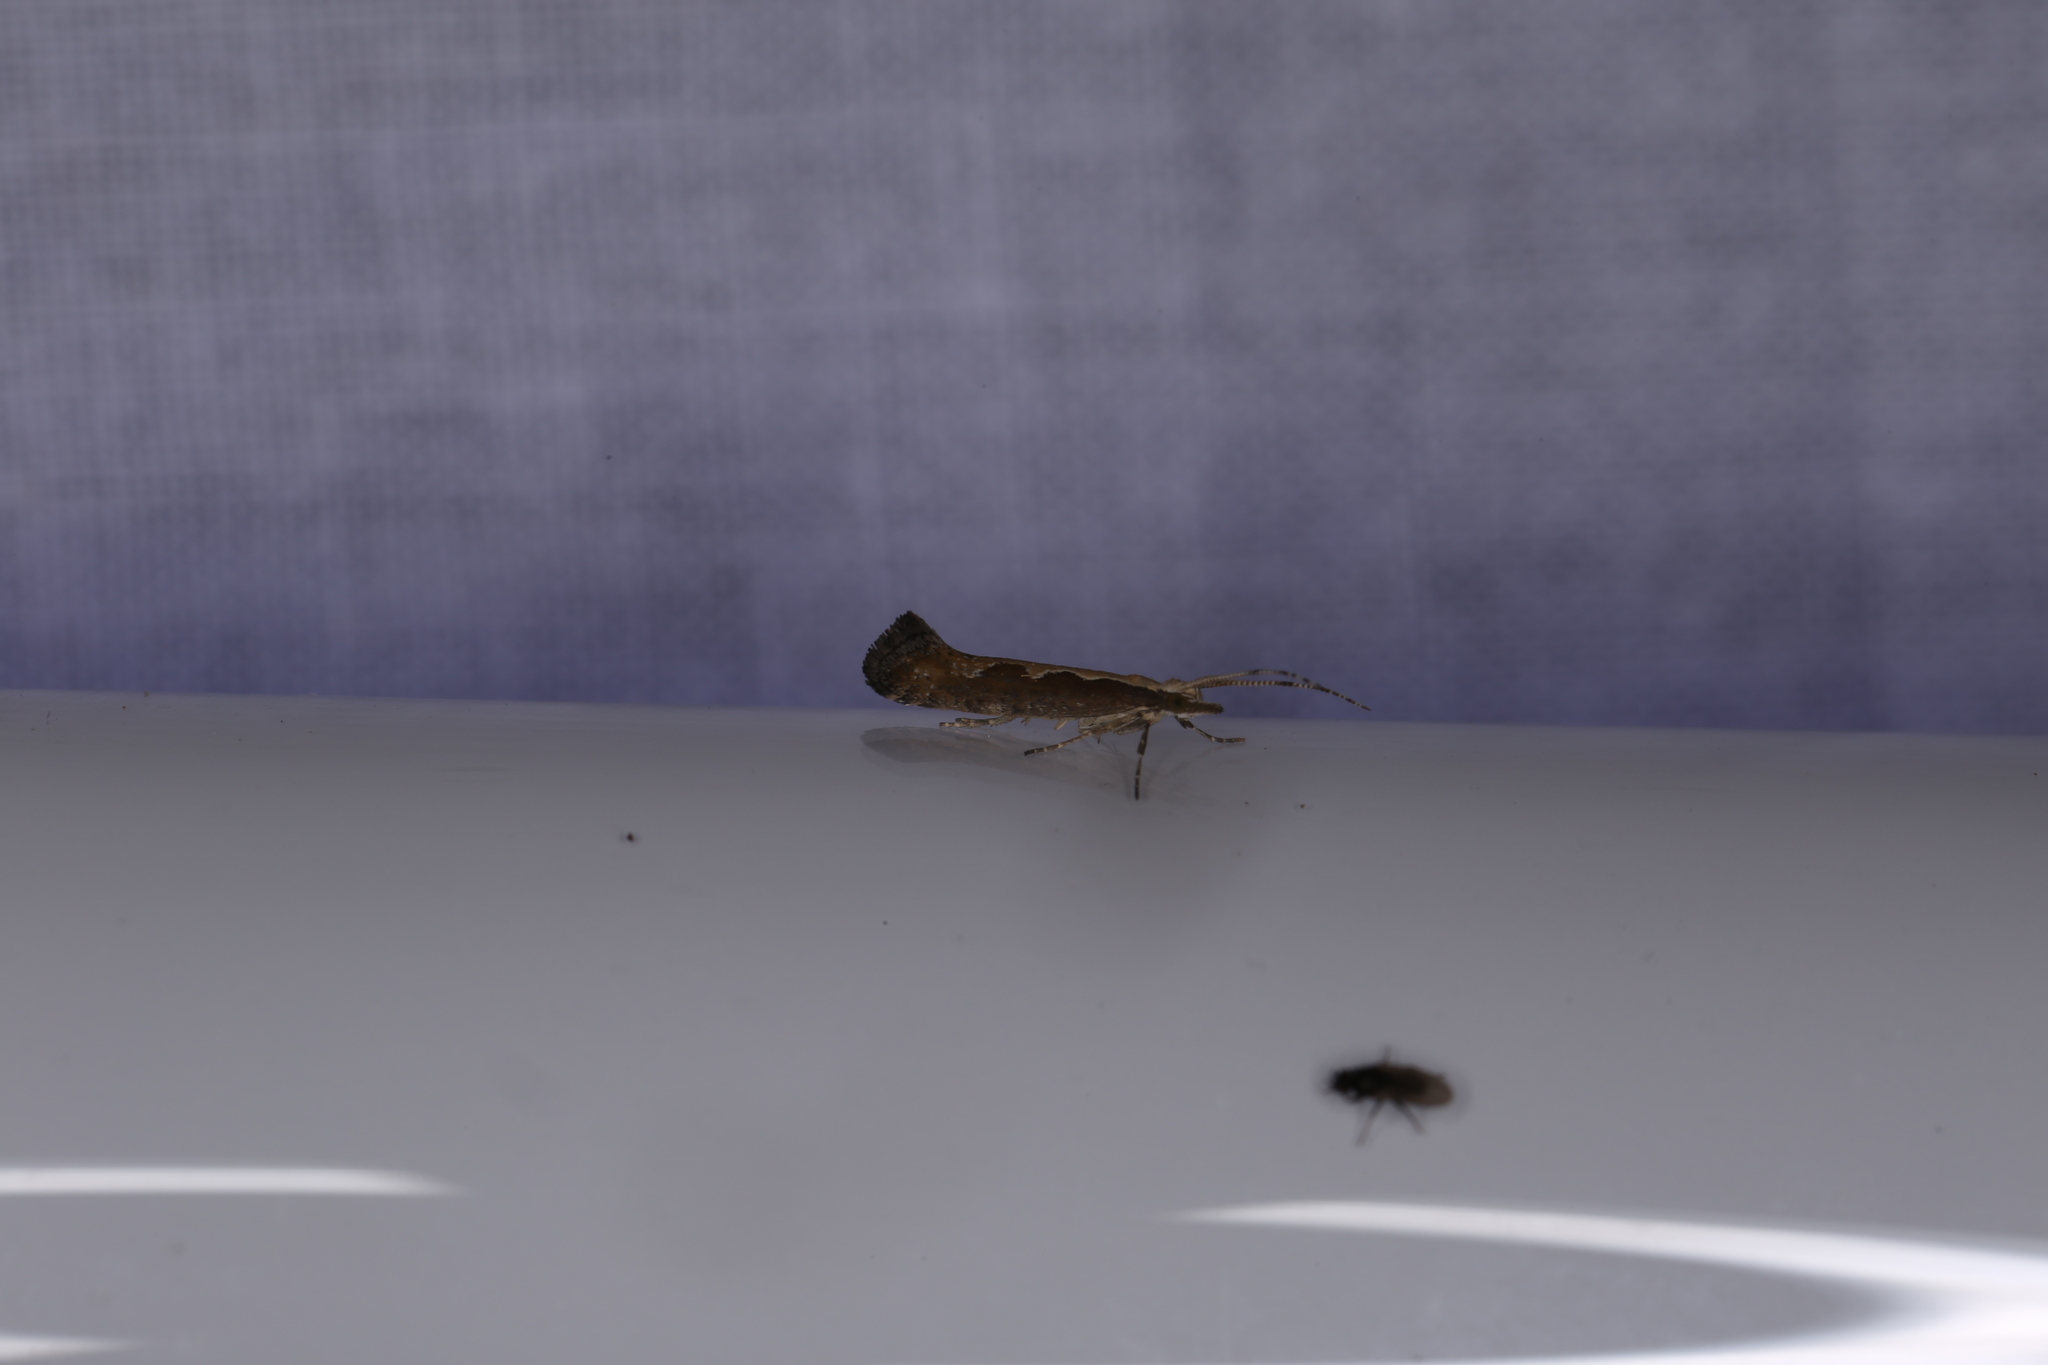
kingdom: Animalia
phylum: Arthropoda
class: Insecta
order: Lepidoptera
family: Plutellidae
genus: Plutella
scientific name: Plutella xylostella
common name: Diamond-back moth
